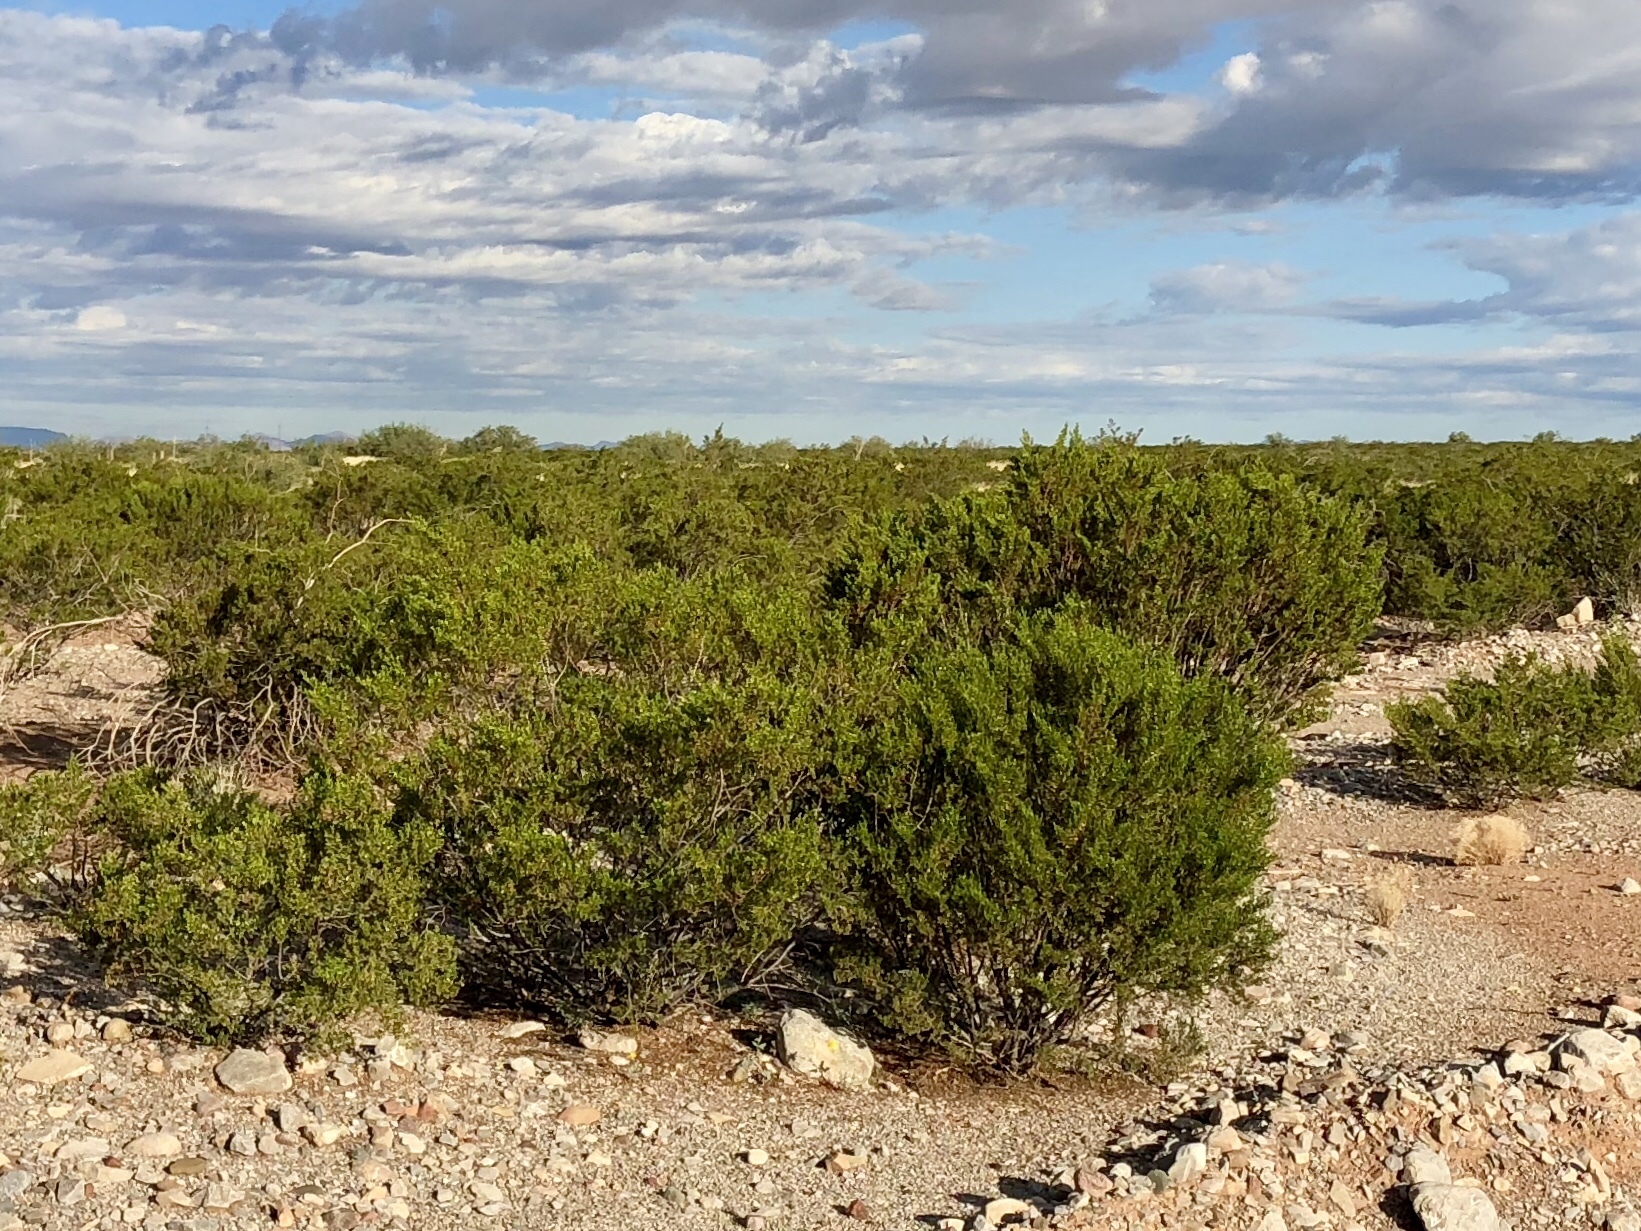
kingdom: Plantae
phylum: Tracheophyta
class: Magnoliopsida
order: Zygophyllales
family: Zygophyllaceae
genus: Larrea
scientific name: Larrea tridentata
